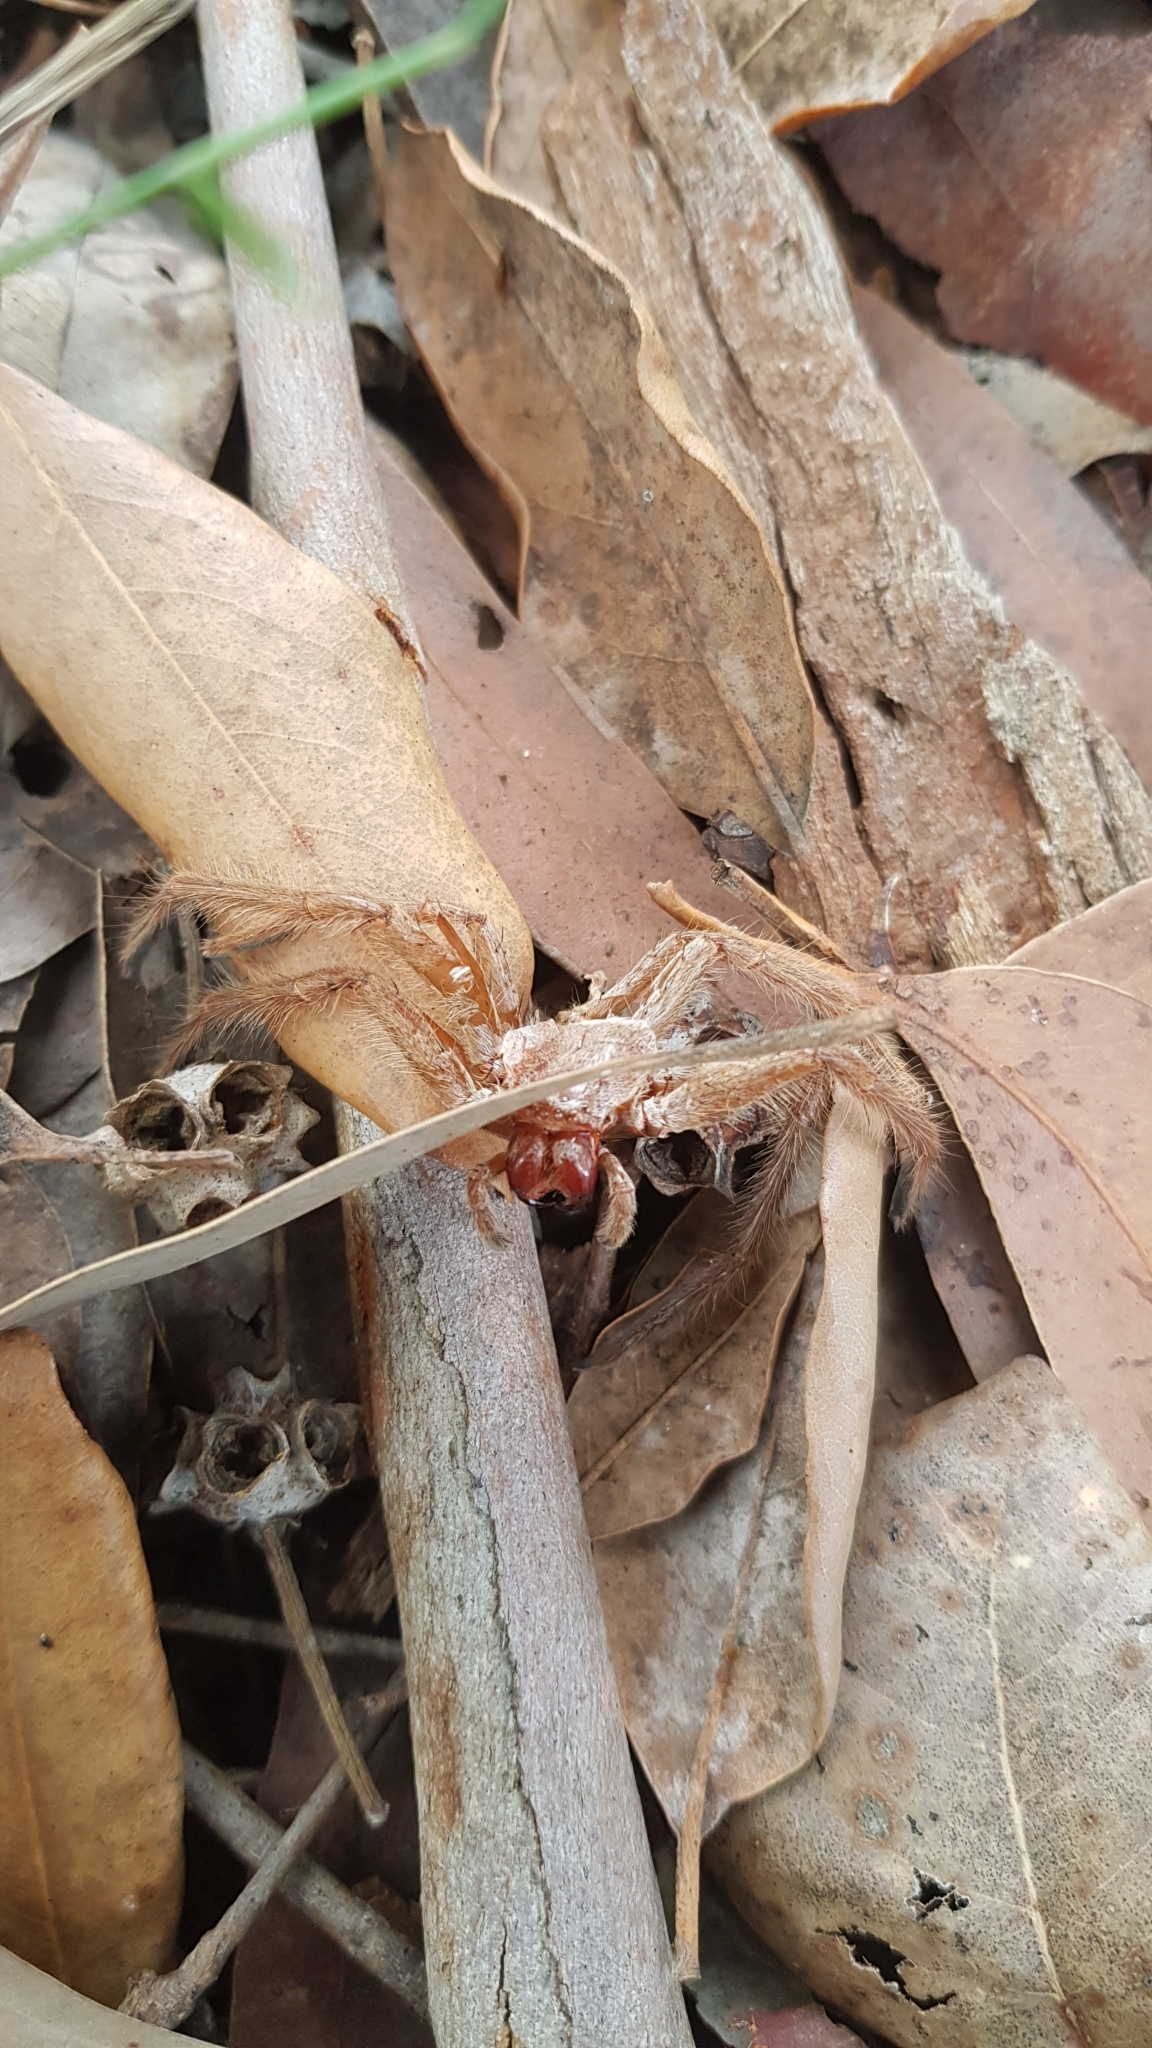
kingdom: Animalia
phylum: Arthropoda
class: Arachnida
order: Araneae
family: Sparassidae
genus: Isopeda
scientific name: Isopeda villosa
